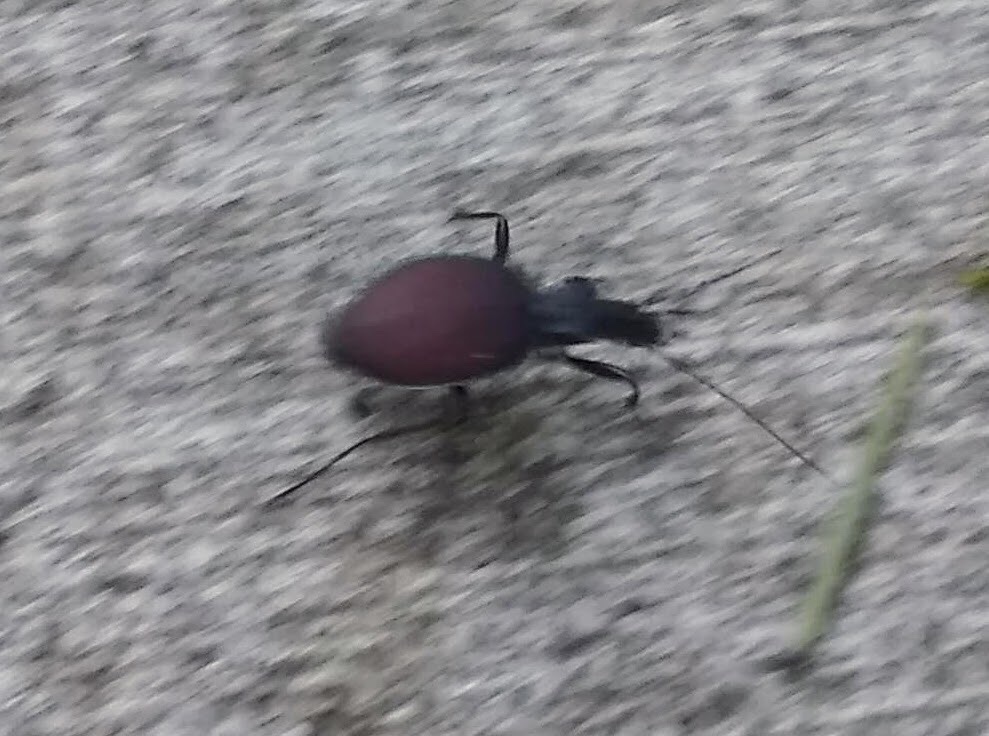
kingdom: Animalia
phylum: Arthropoda
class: Insecta
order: Coleoptera
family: Carabidae
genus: Scaphinotus
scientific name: Scaphinotus angusticollis
